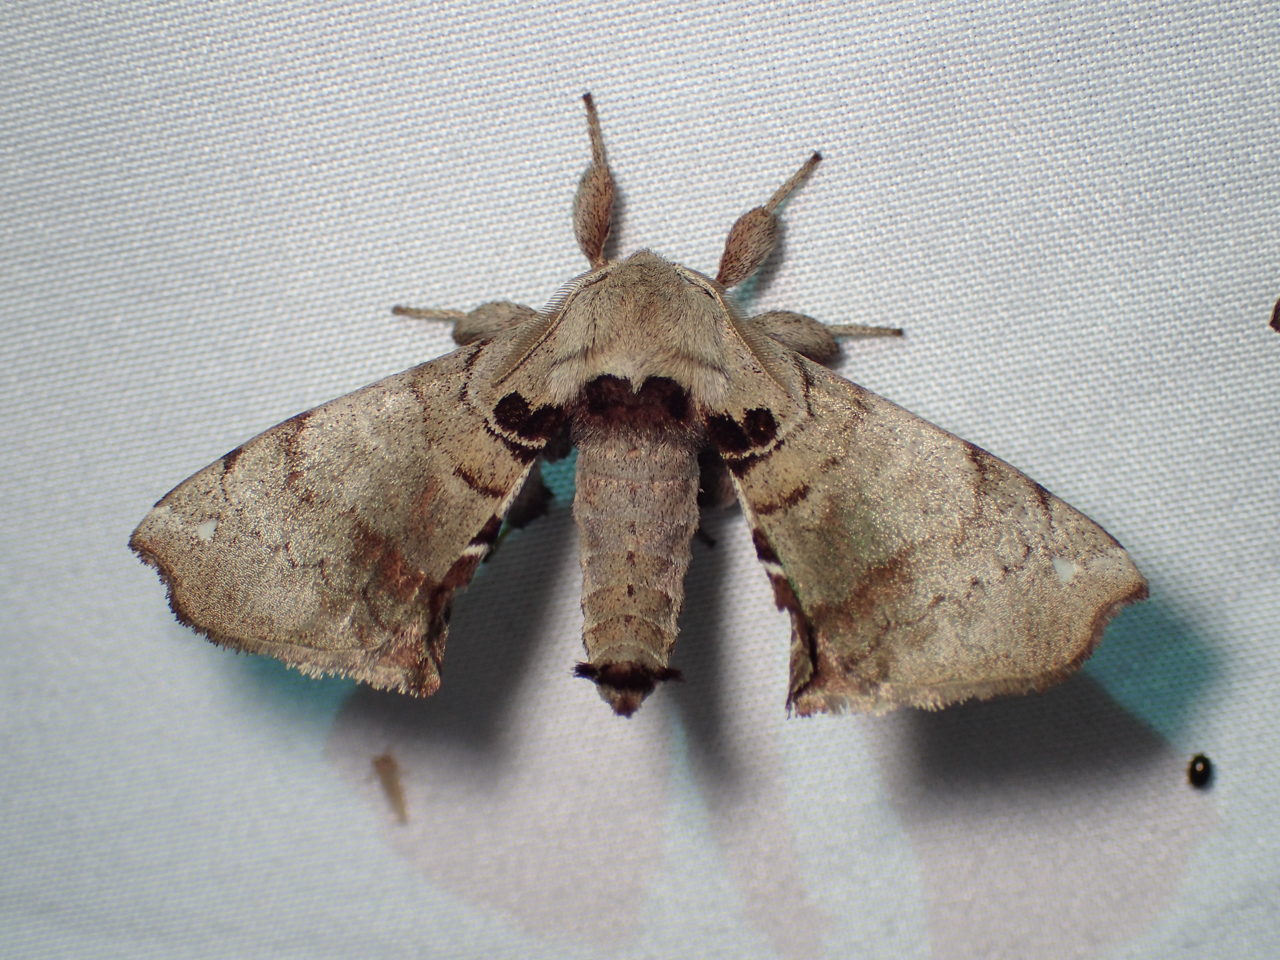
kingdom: Animalia
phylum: Arthropoda
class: Insecta
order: Lepidoptera
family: Apatelodidae
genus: Hygrochroa
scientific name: Hygrochroa Apatelodes torrefacta
